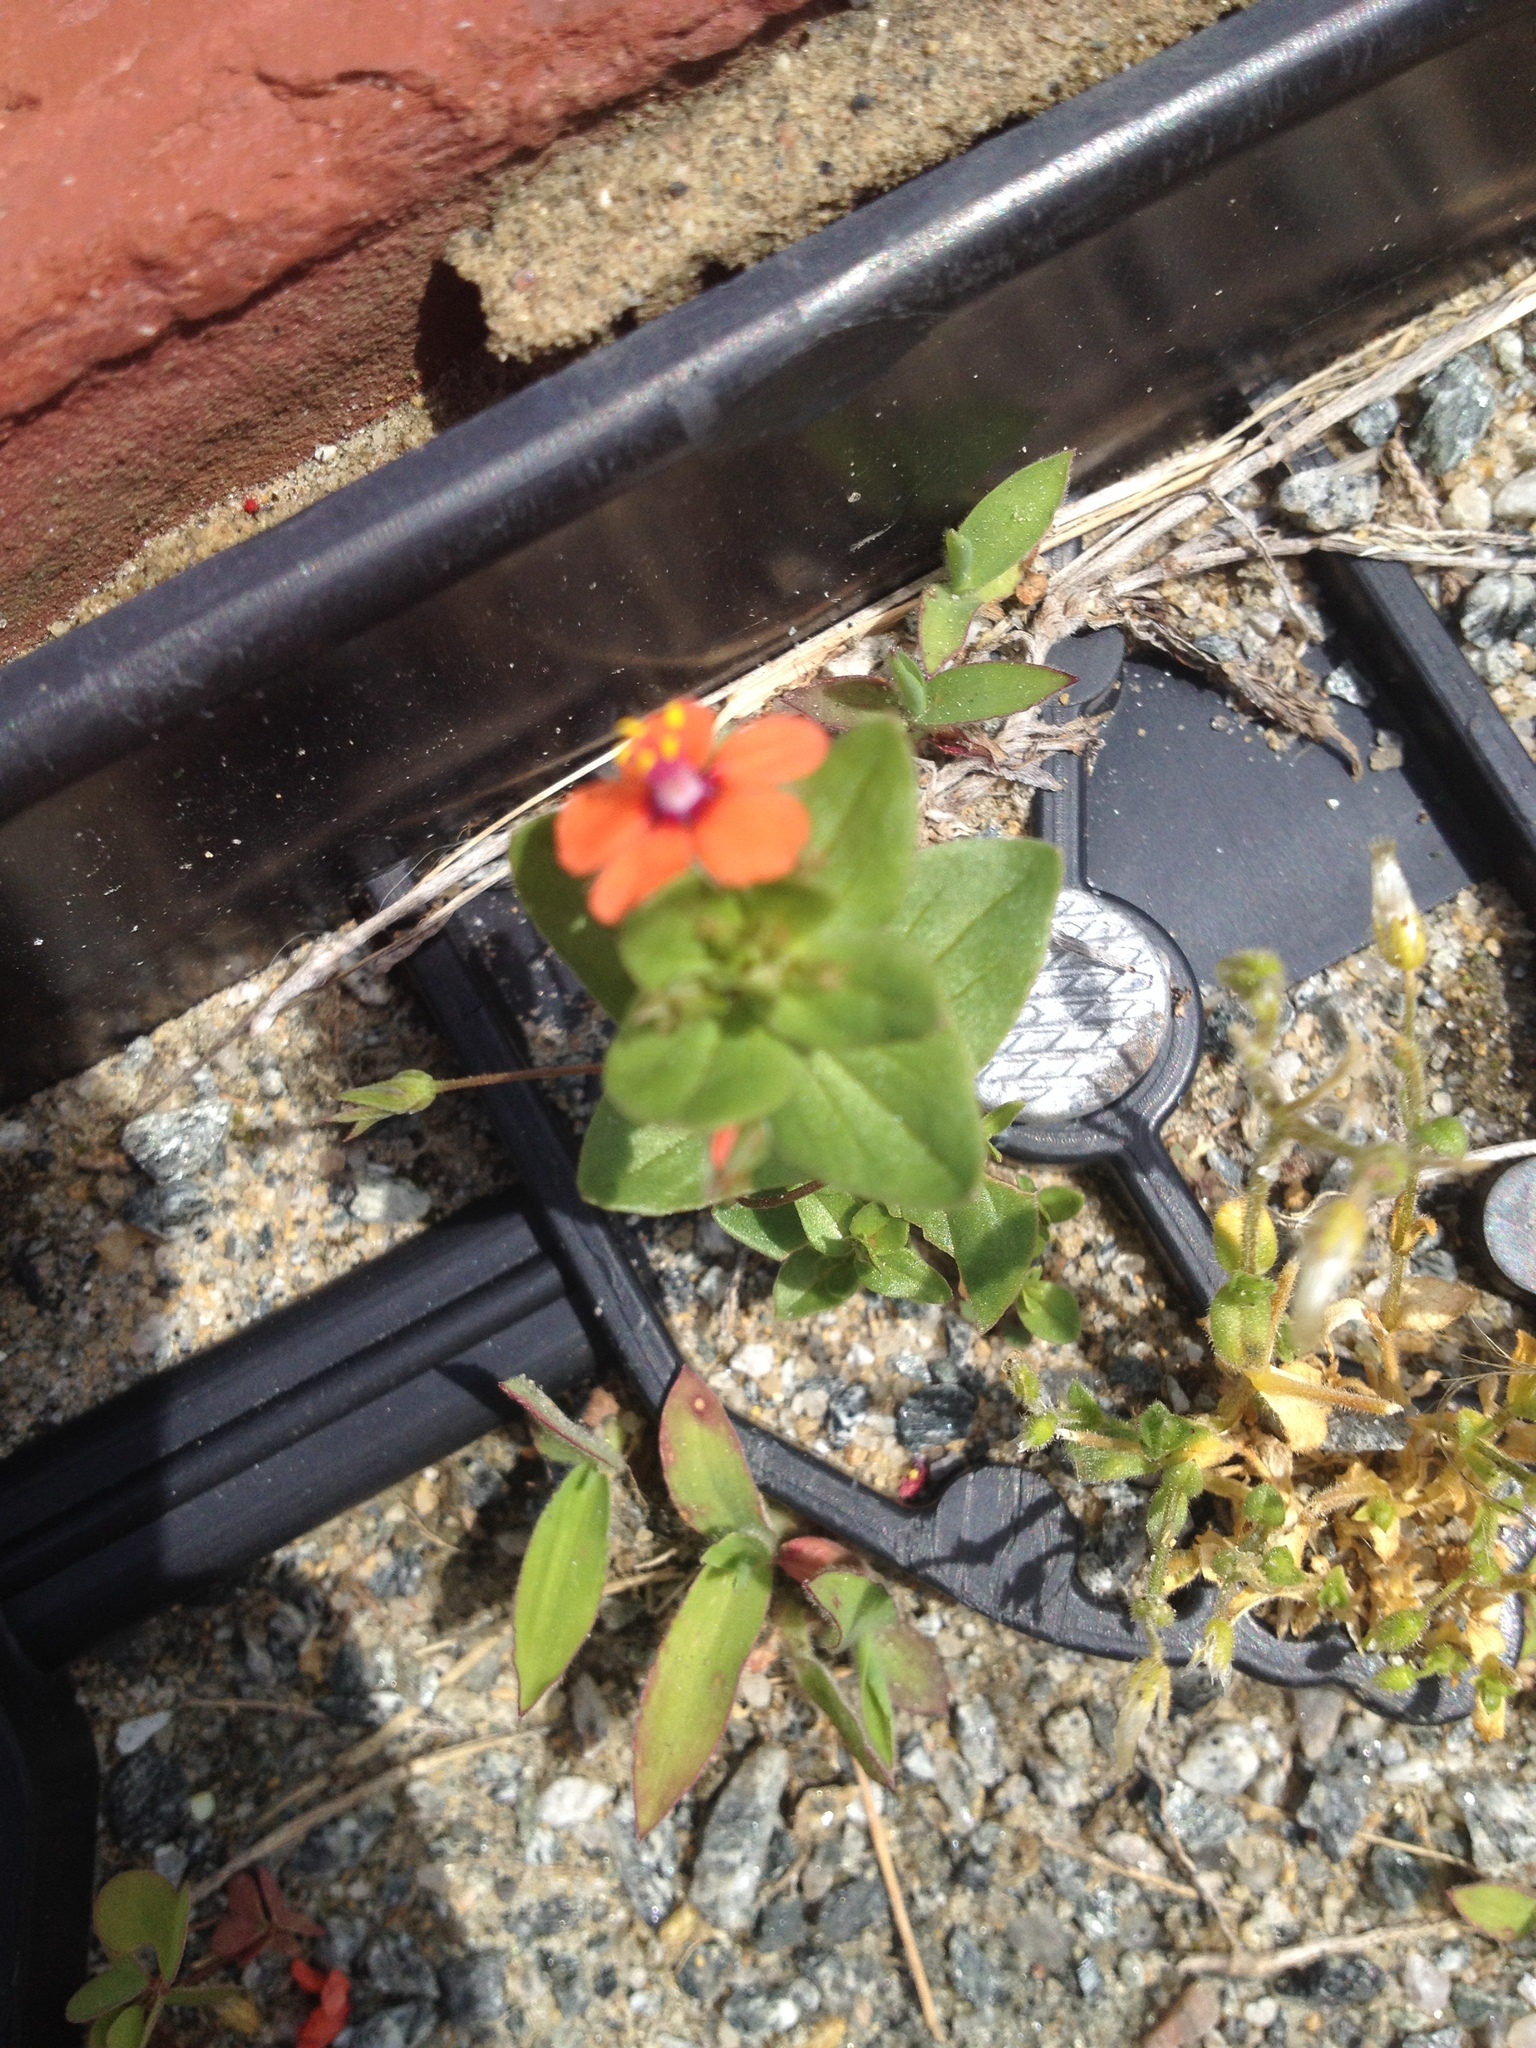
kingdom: Plantae
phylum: Tracheophyta
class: Magnoliopsida
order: Ericales
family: Primulaceae
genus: Lysimachia
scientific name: Lysimachia arvensis
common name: Scarlet pimpernel
